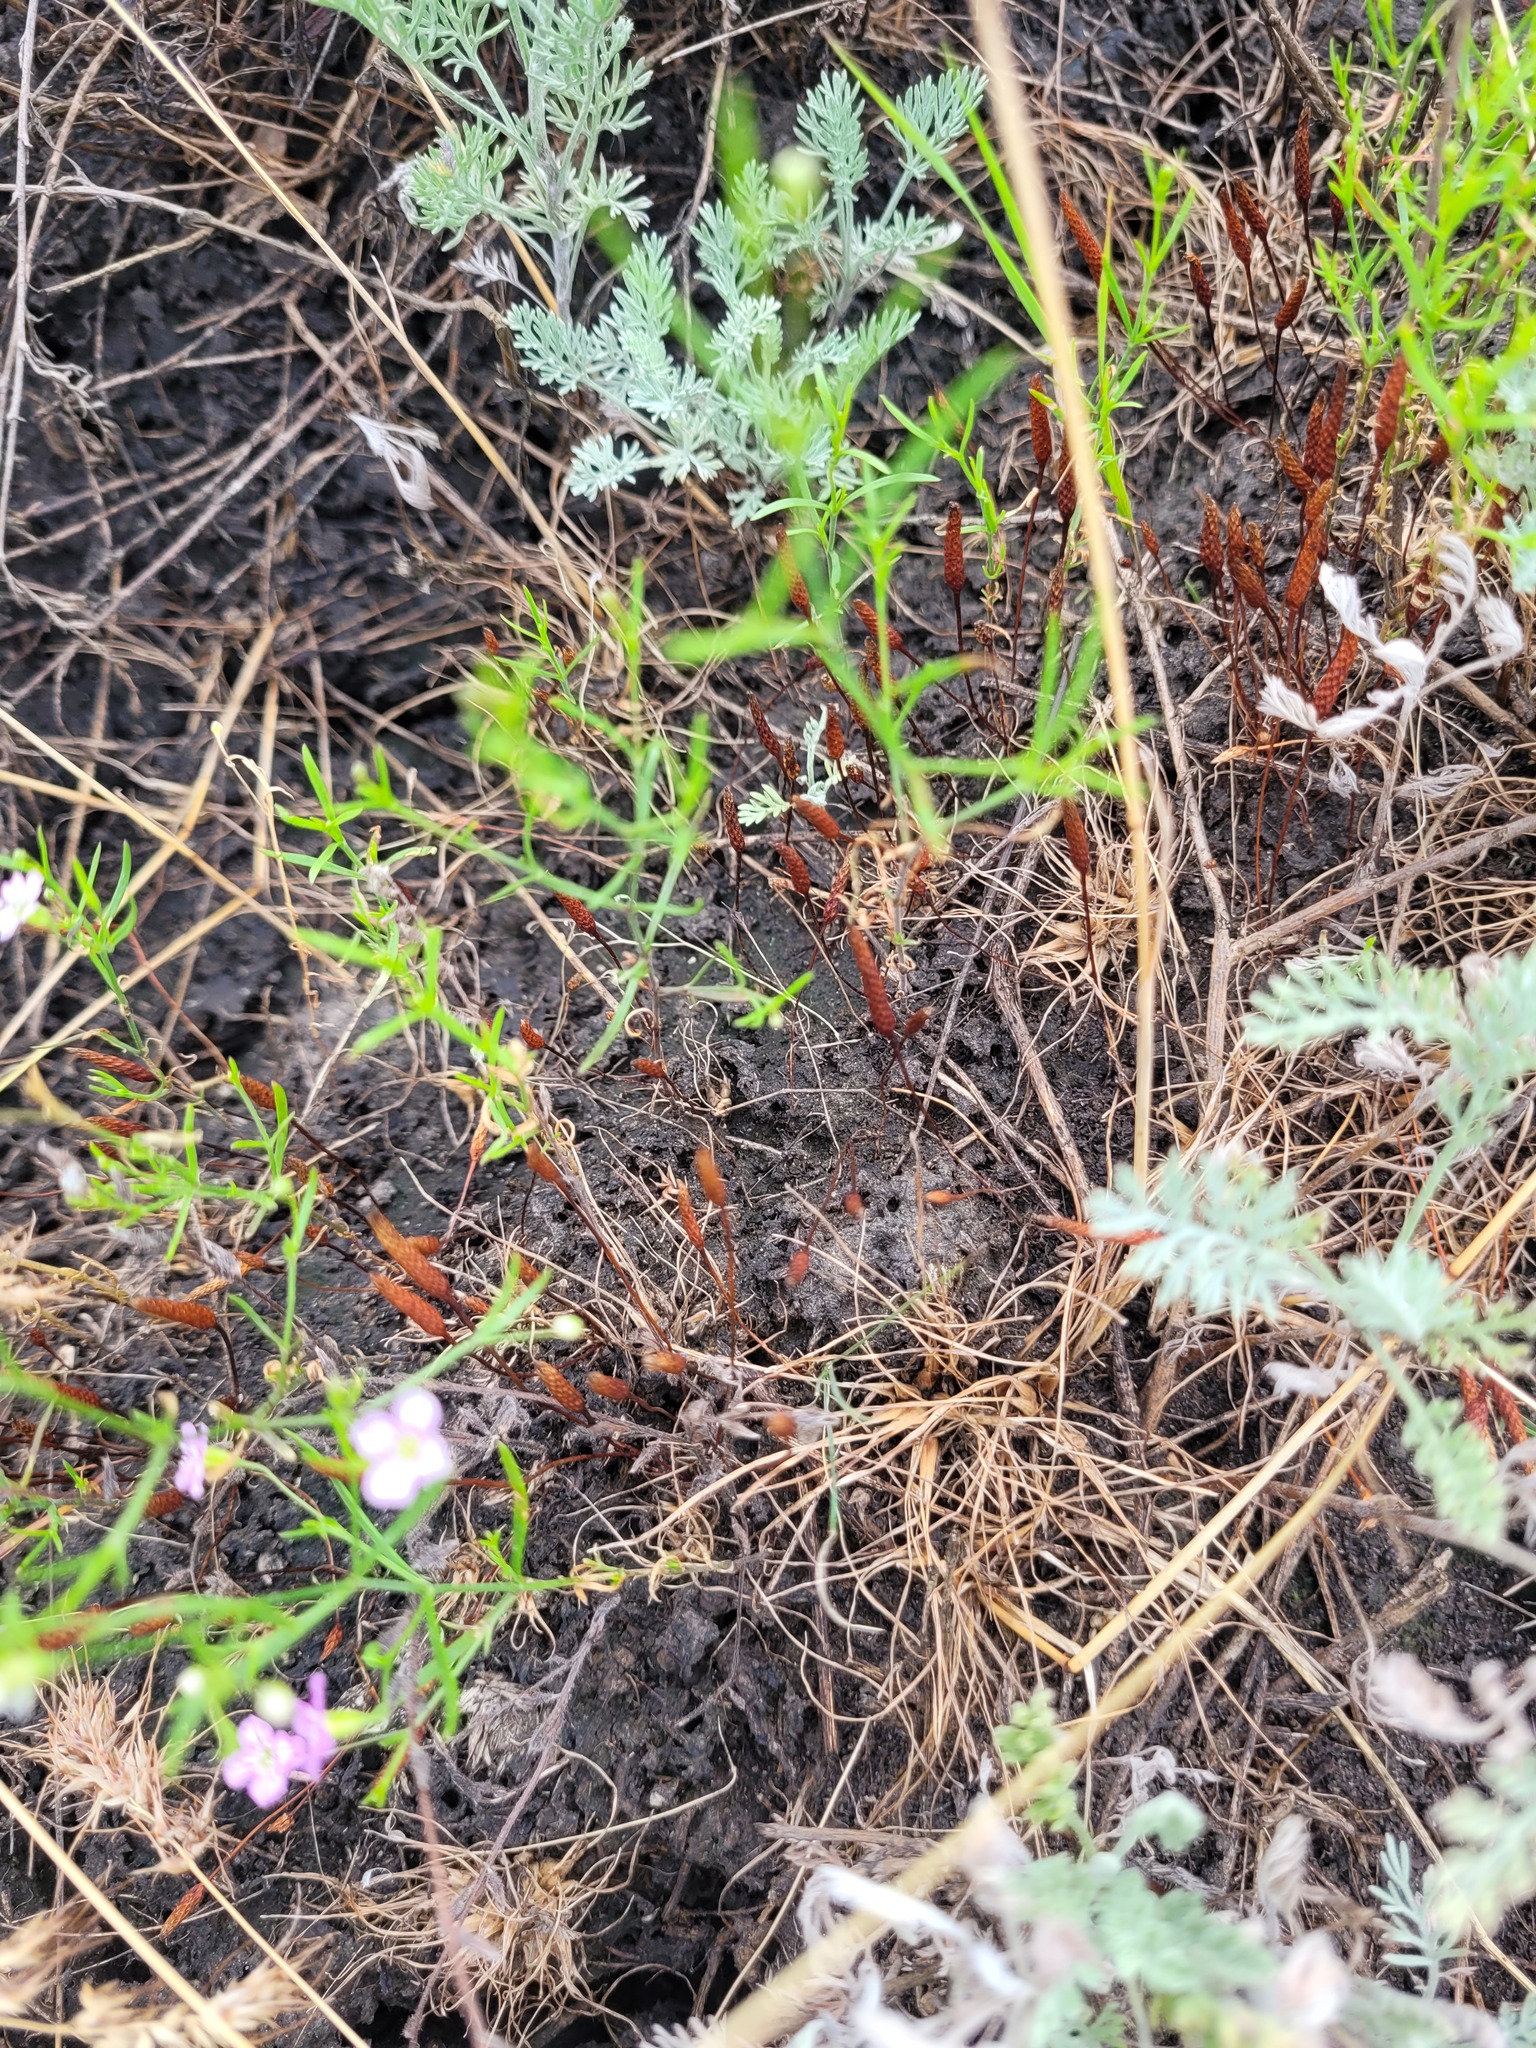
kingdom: Plantae
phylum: Tracheophyta
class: Magnoliopsida
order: Ranunculales
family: Ranunculaceae
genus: Myosurus
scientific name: Myosurus minimus
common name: Mousetail
